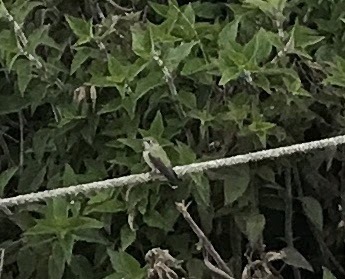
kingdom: Animalia
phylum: Chordata
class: Aves
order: Apodiformes
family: Trochilidae
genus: Calypte
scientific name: Calypte anna
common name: Anna's hummingbird
